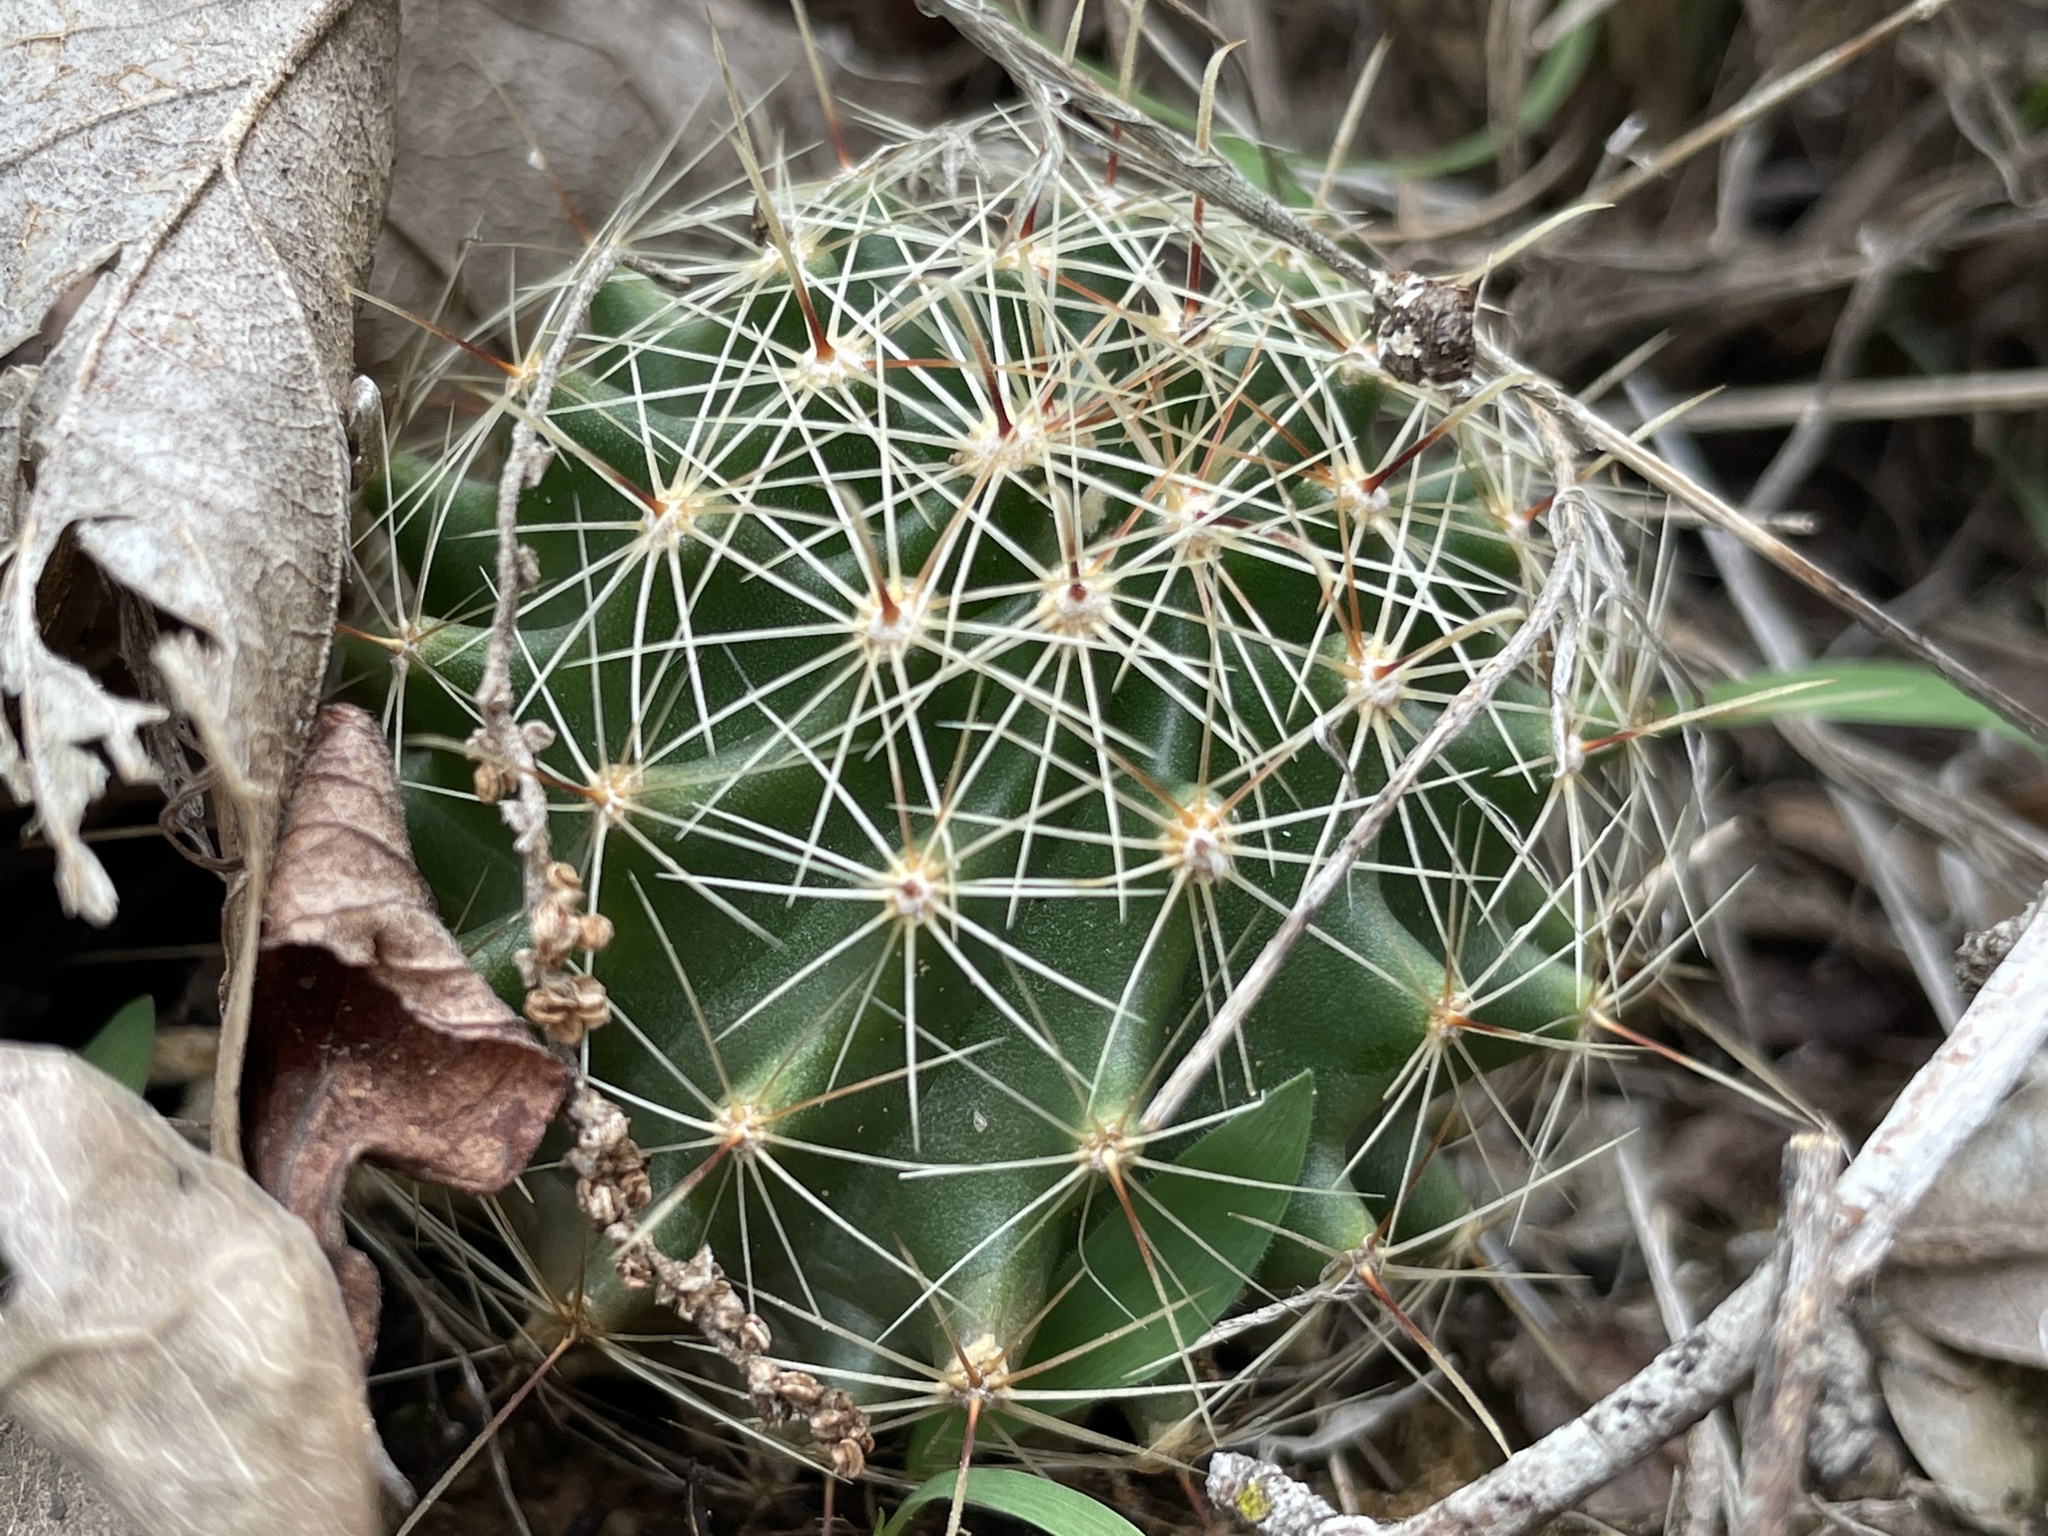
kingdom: Plantae
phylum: Tracheophyta
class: Magnoliopsida
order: Caryophyllales
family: Cactaceae
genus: Thelocactus
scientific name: Thelocactus setispinus
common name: Miniature barrel cactus
